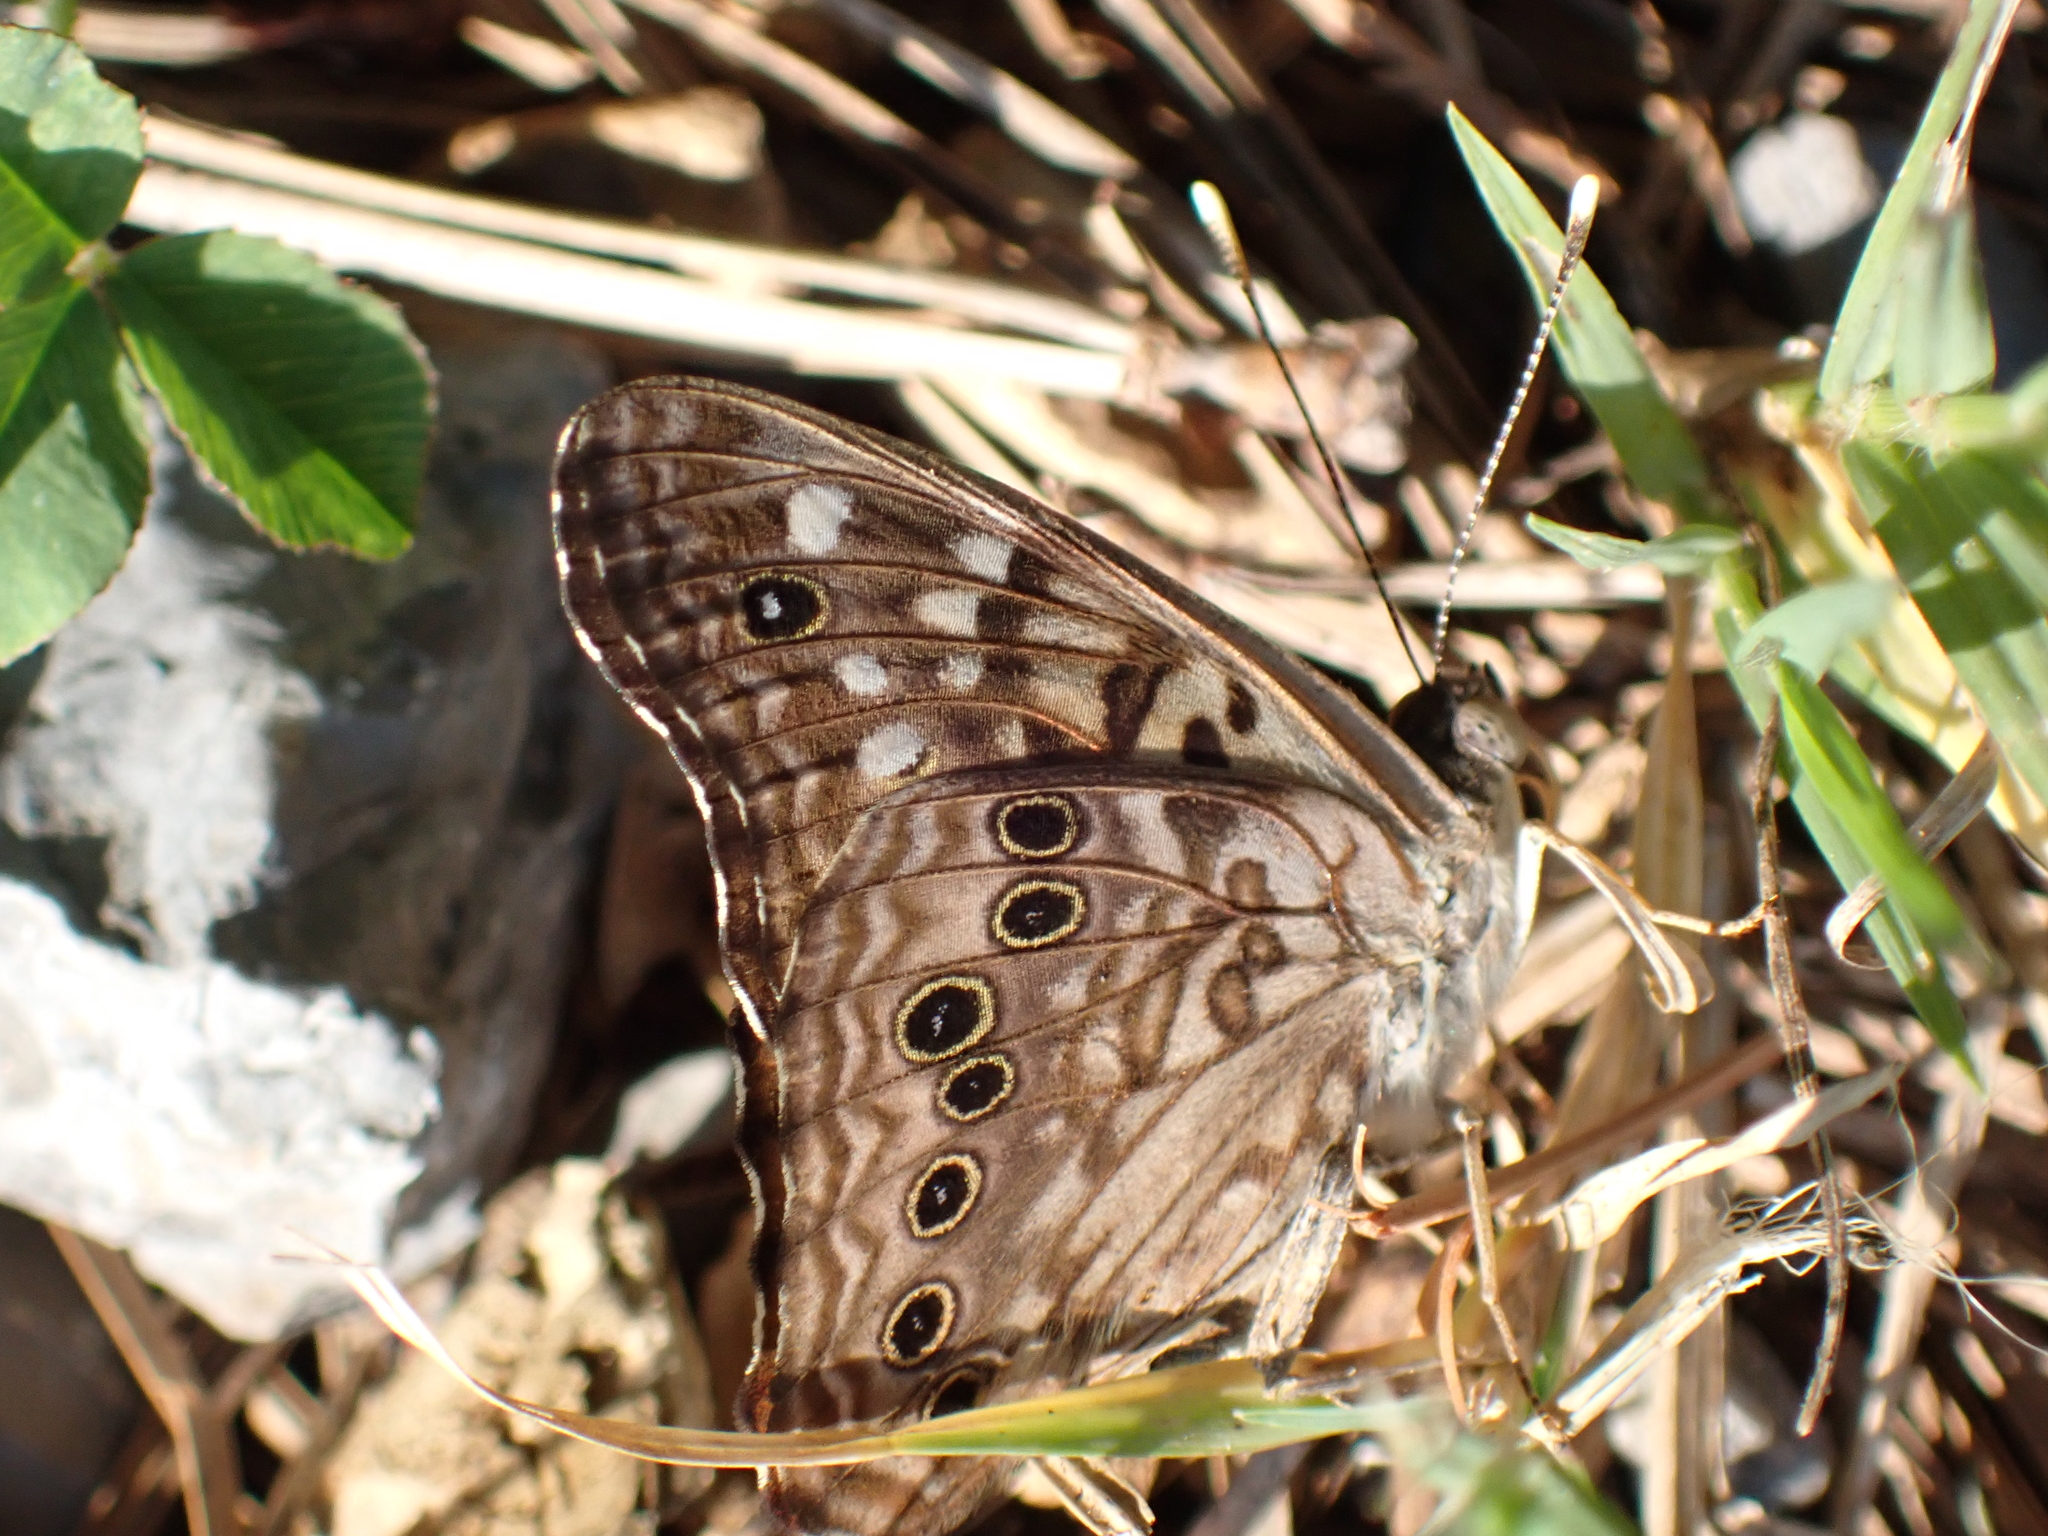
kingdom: Animalia
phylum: Arthropoda
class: Insecta
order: Lepidoptera
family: Nymphalidae
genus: Asterocampa
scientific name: Asterocampa celtis
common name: Hackberry emperor
